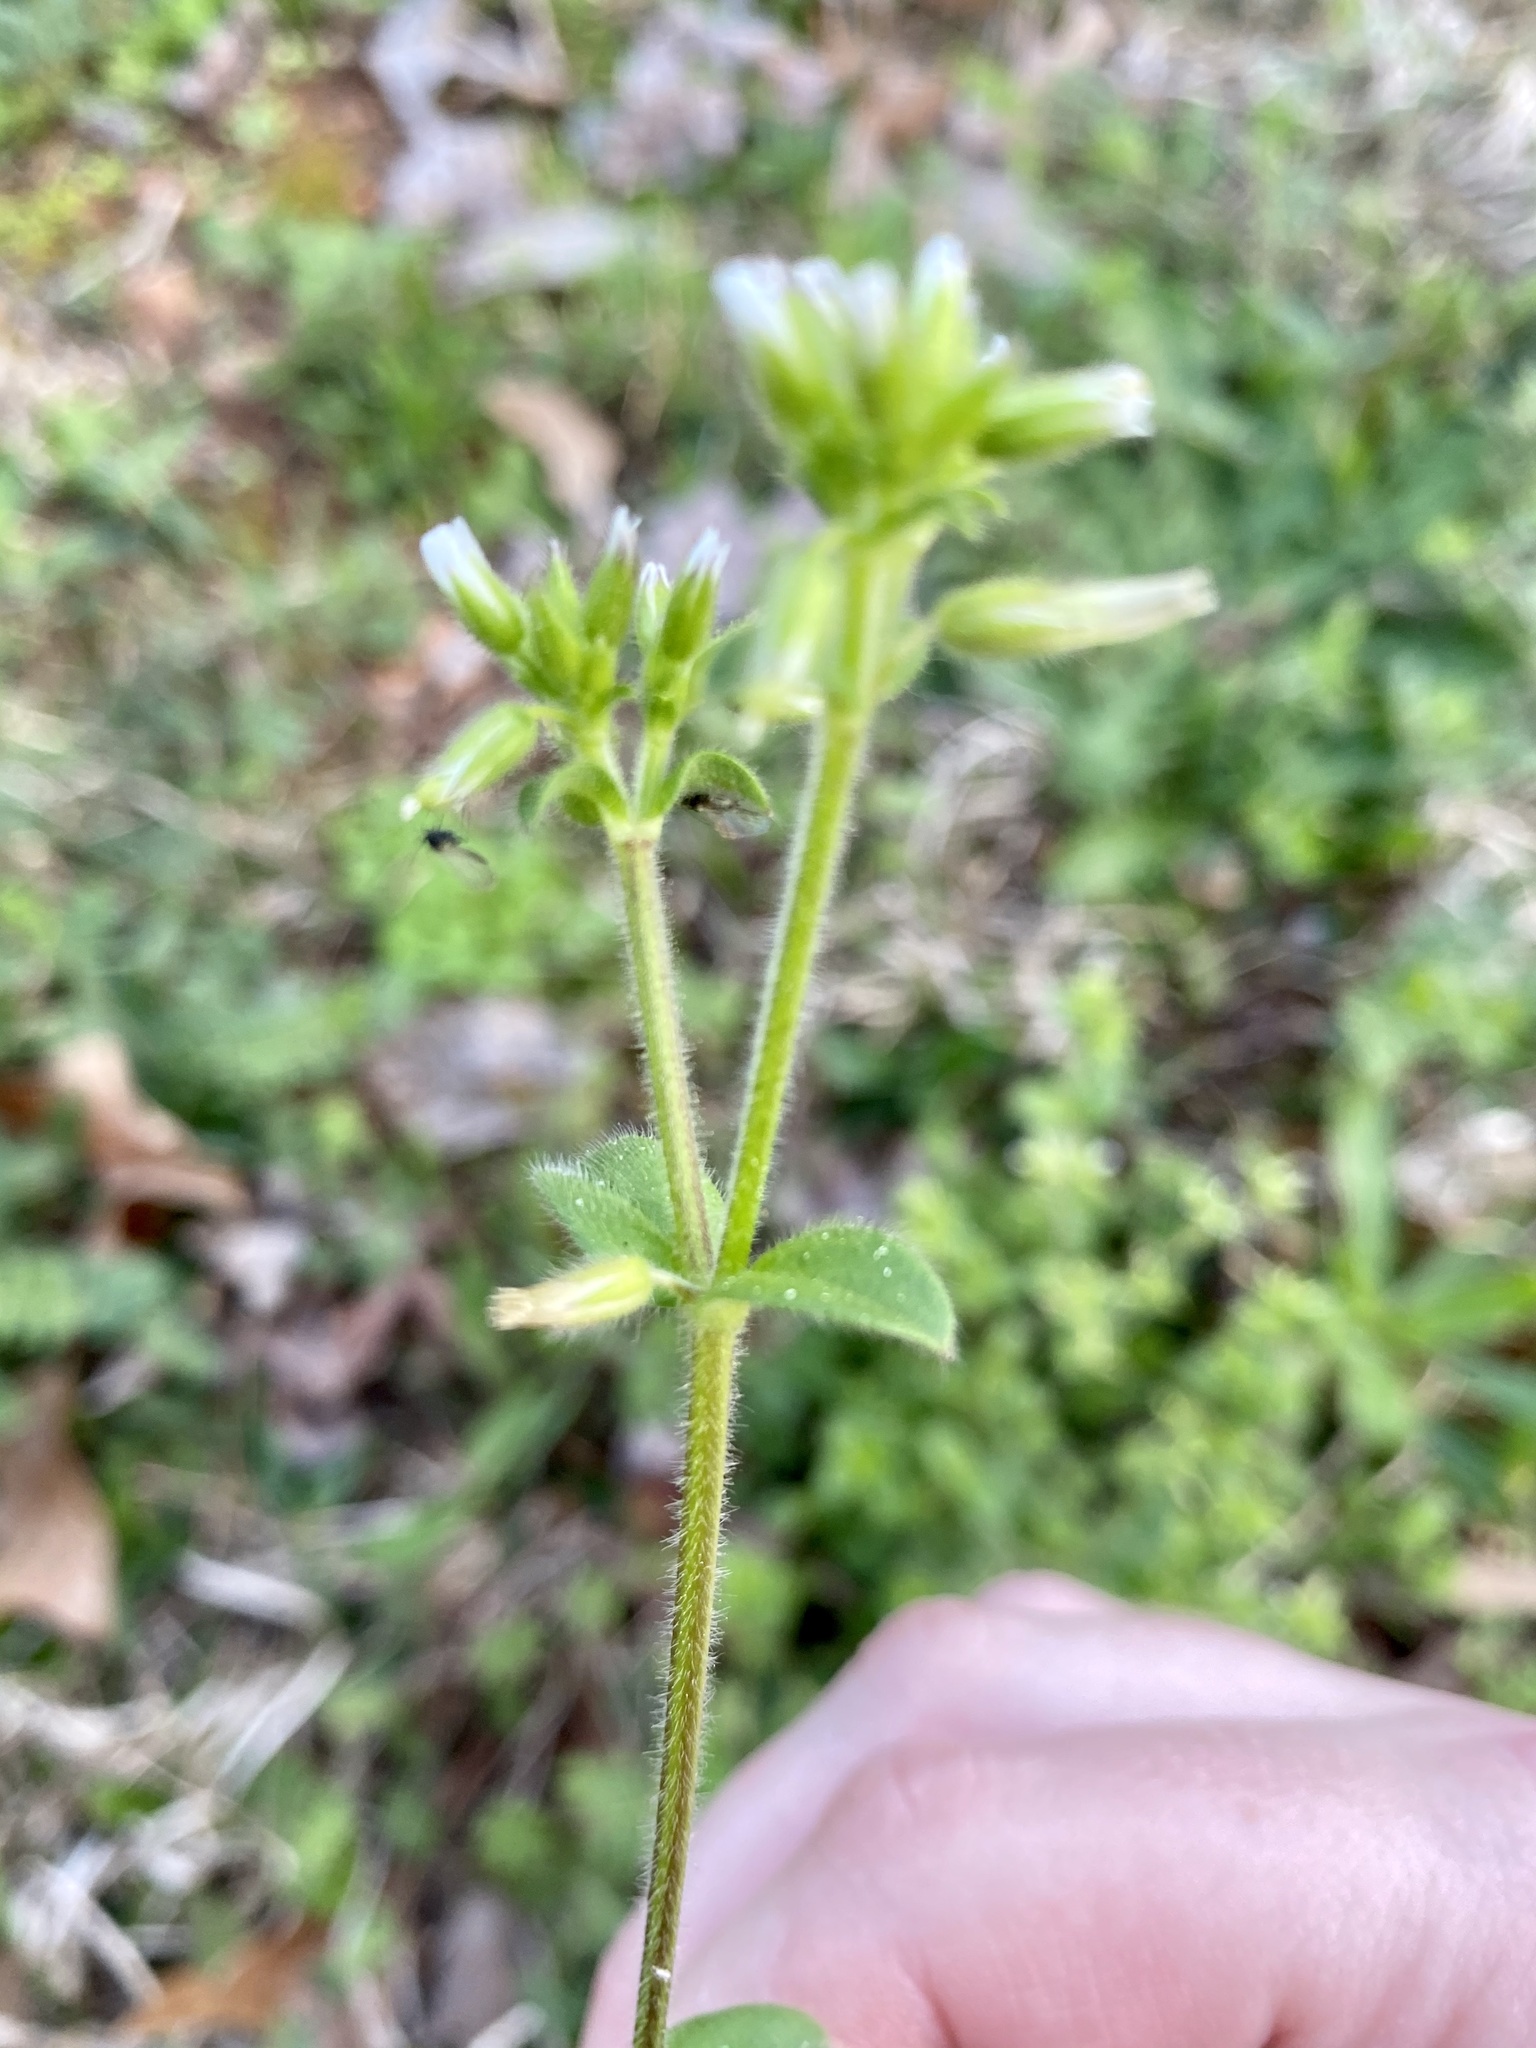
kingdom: Plantae
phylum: Tracheophyta
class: Magnoliopsida
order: Caryophyllales
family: Caryophyllaceae
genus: Cerastium
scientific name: Cerastium glomeratum
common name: Sticky chickweed
